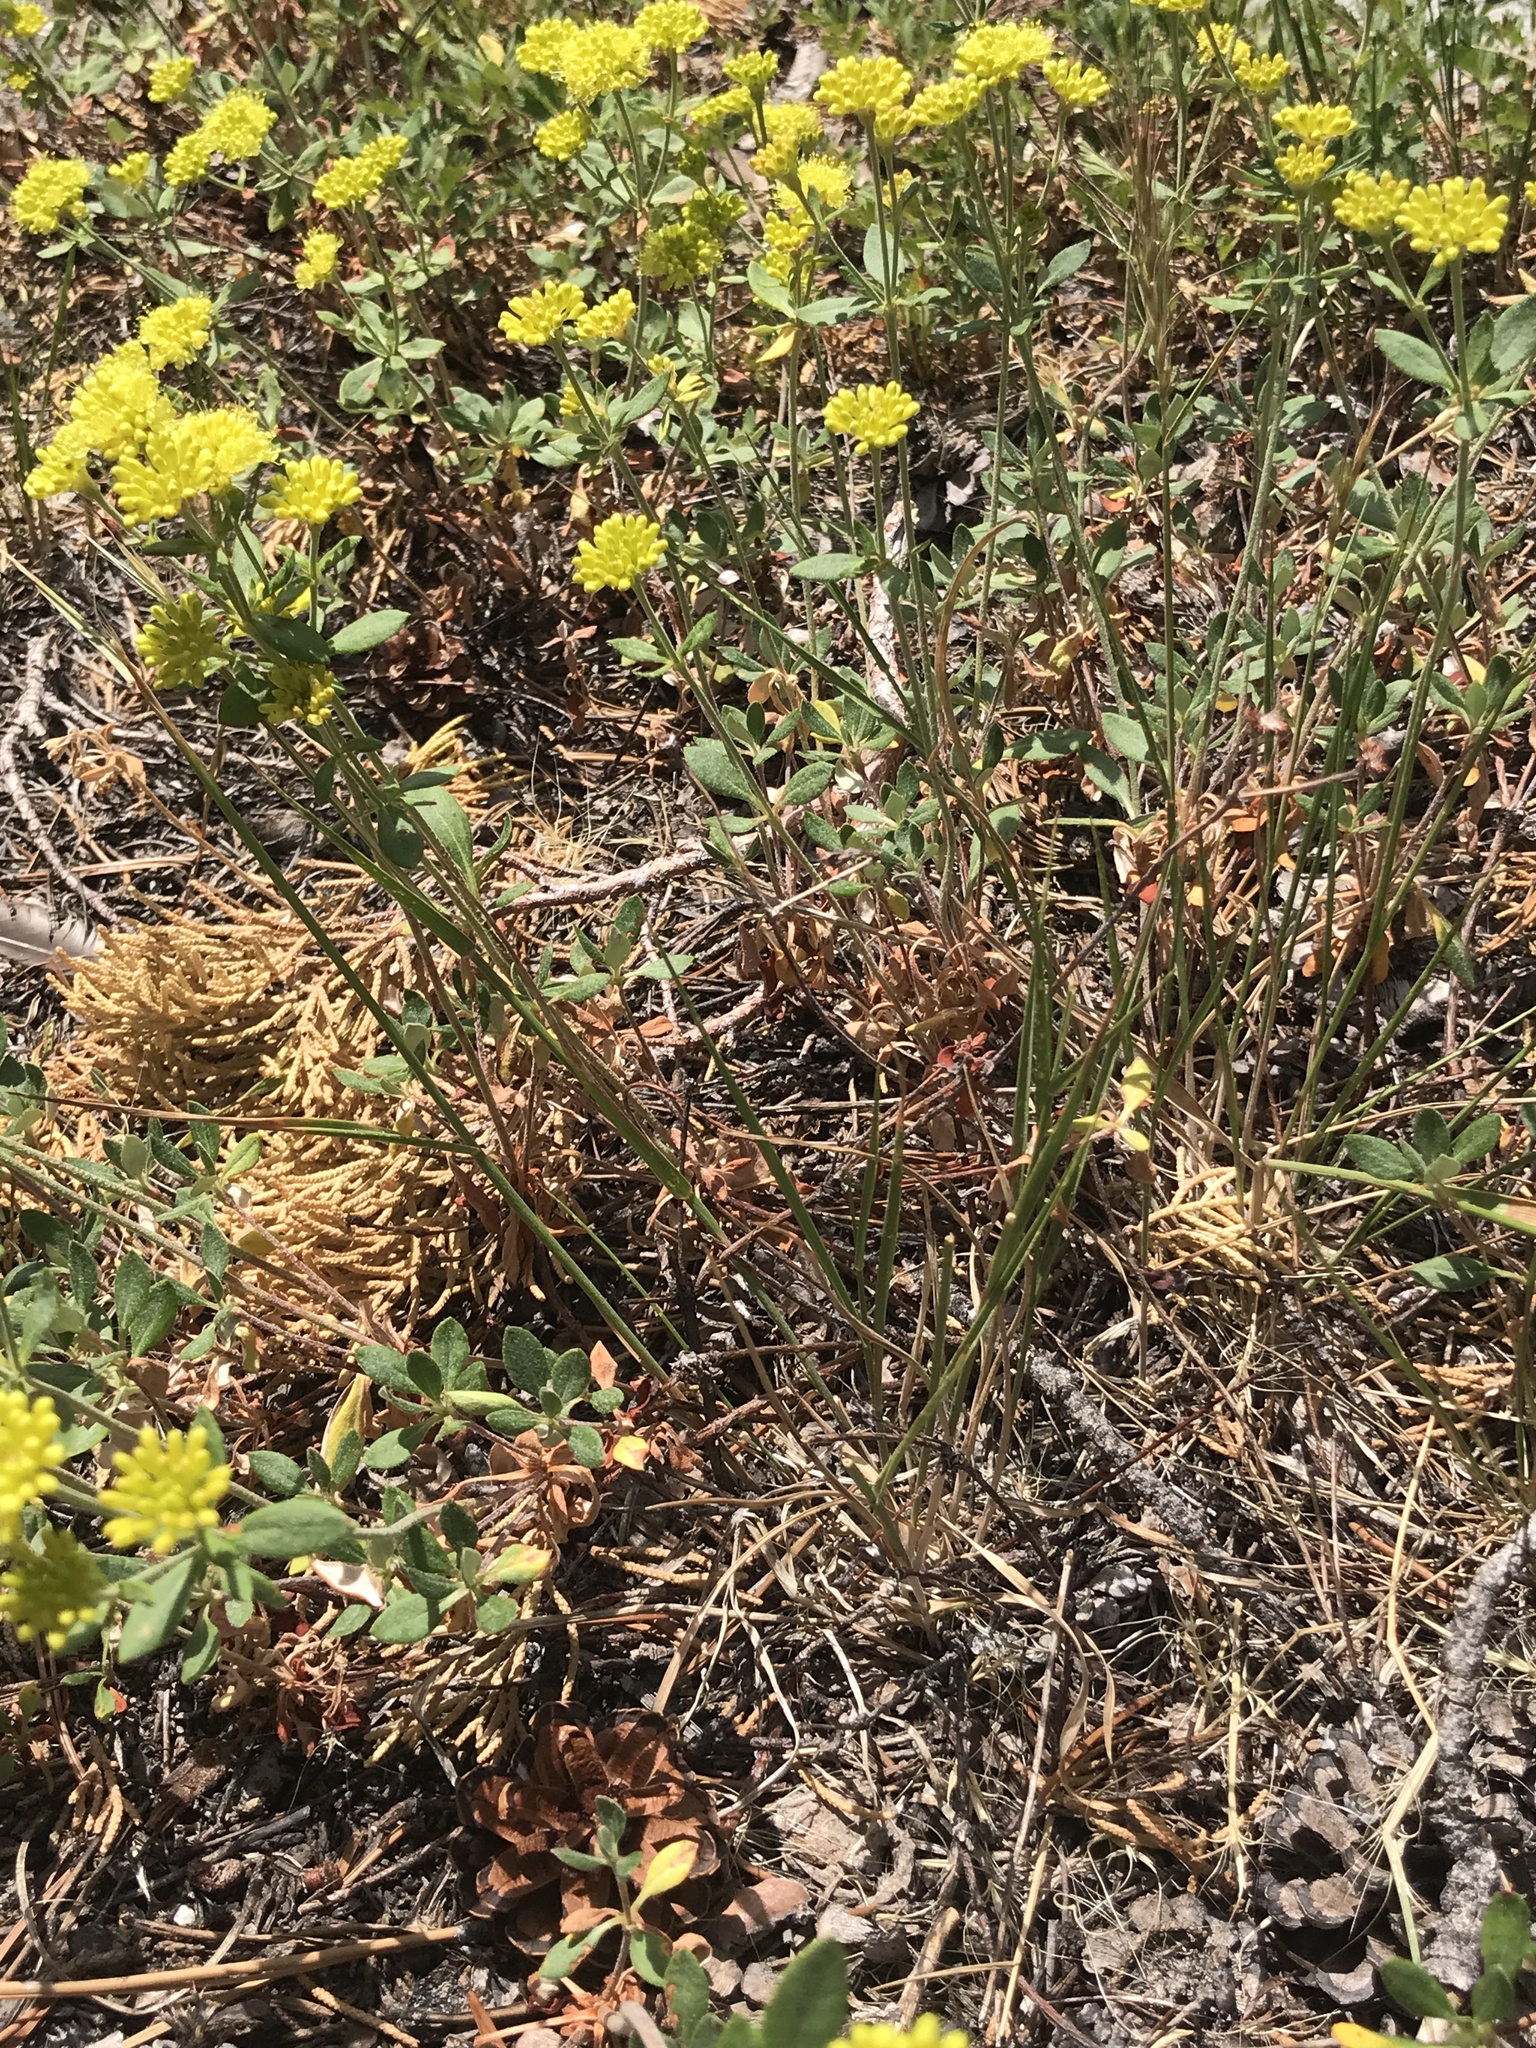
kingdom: Plantae
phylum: Tracheophyta
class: Magnoliopsida
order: Caryophyllales
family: Polygonaceae
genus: Eriogonum
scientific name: Eriogonum umbellatum
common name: Sulfur-buckwheat
